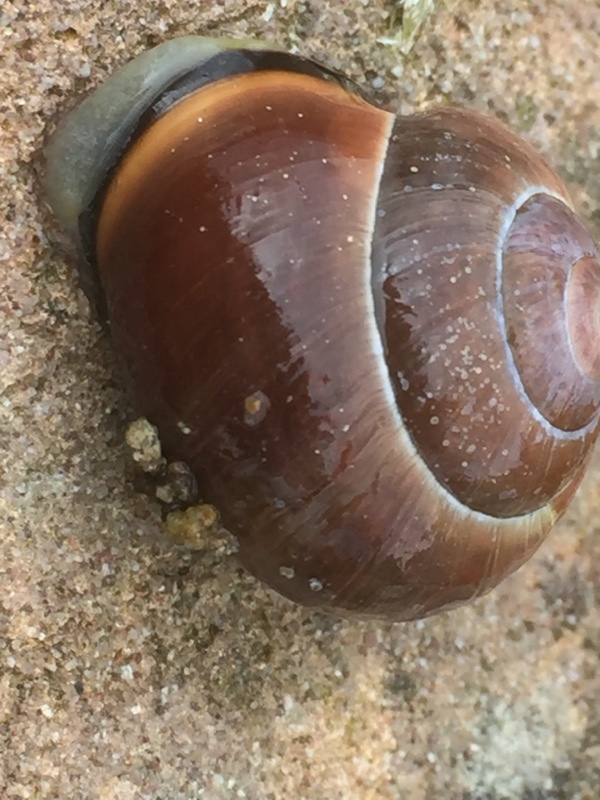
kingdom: Animalia
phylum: Mollusca
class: Gastropoda
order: Stylommatophora
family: Helicidae
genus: Cepaea
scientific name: Cepaea nemoralis
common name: Grovesnail
